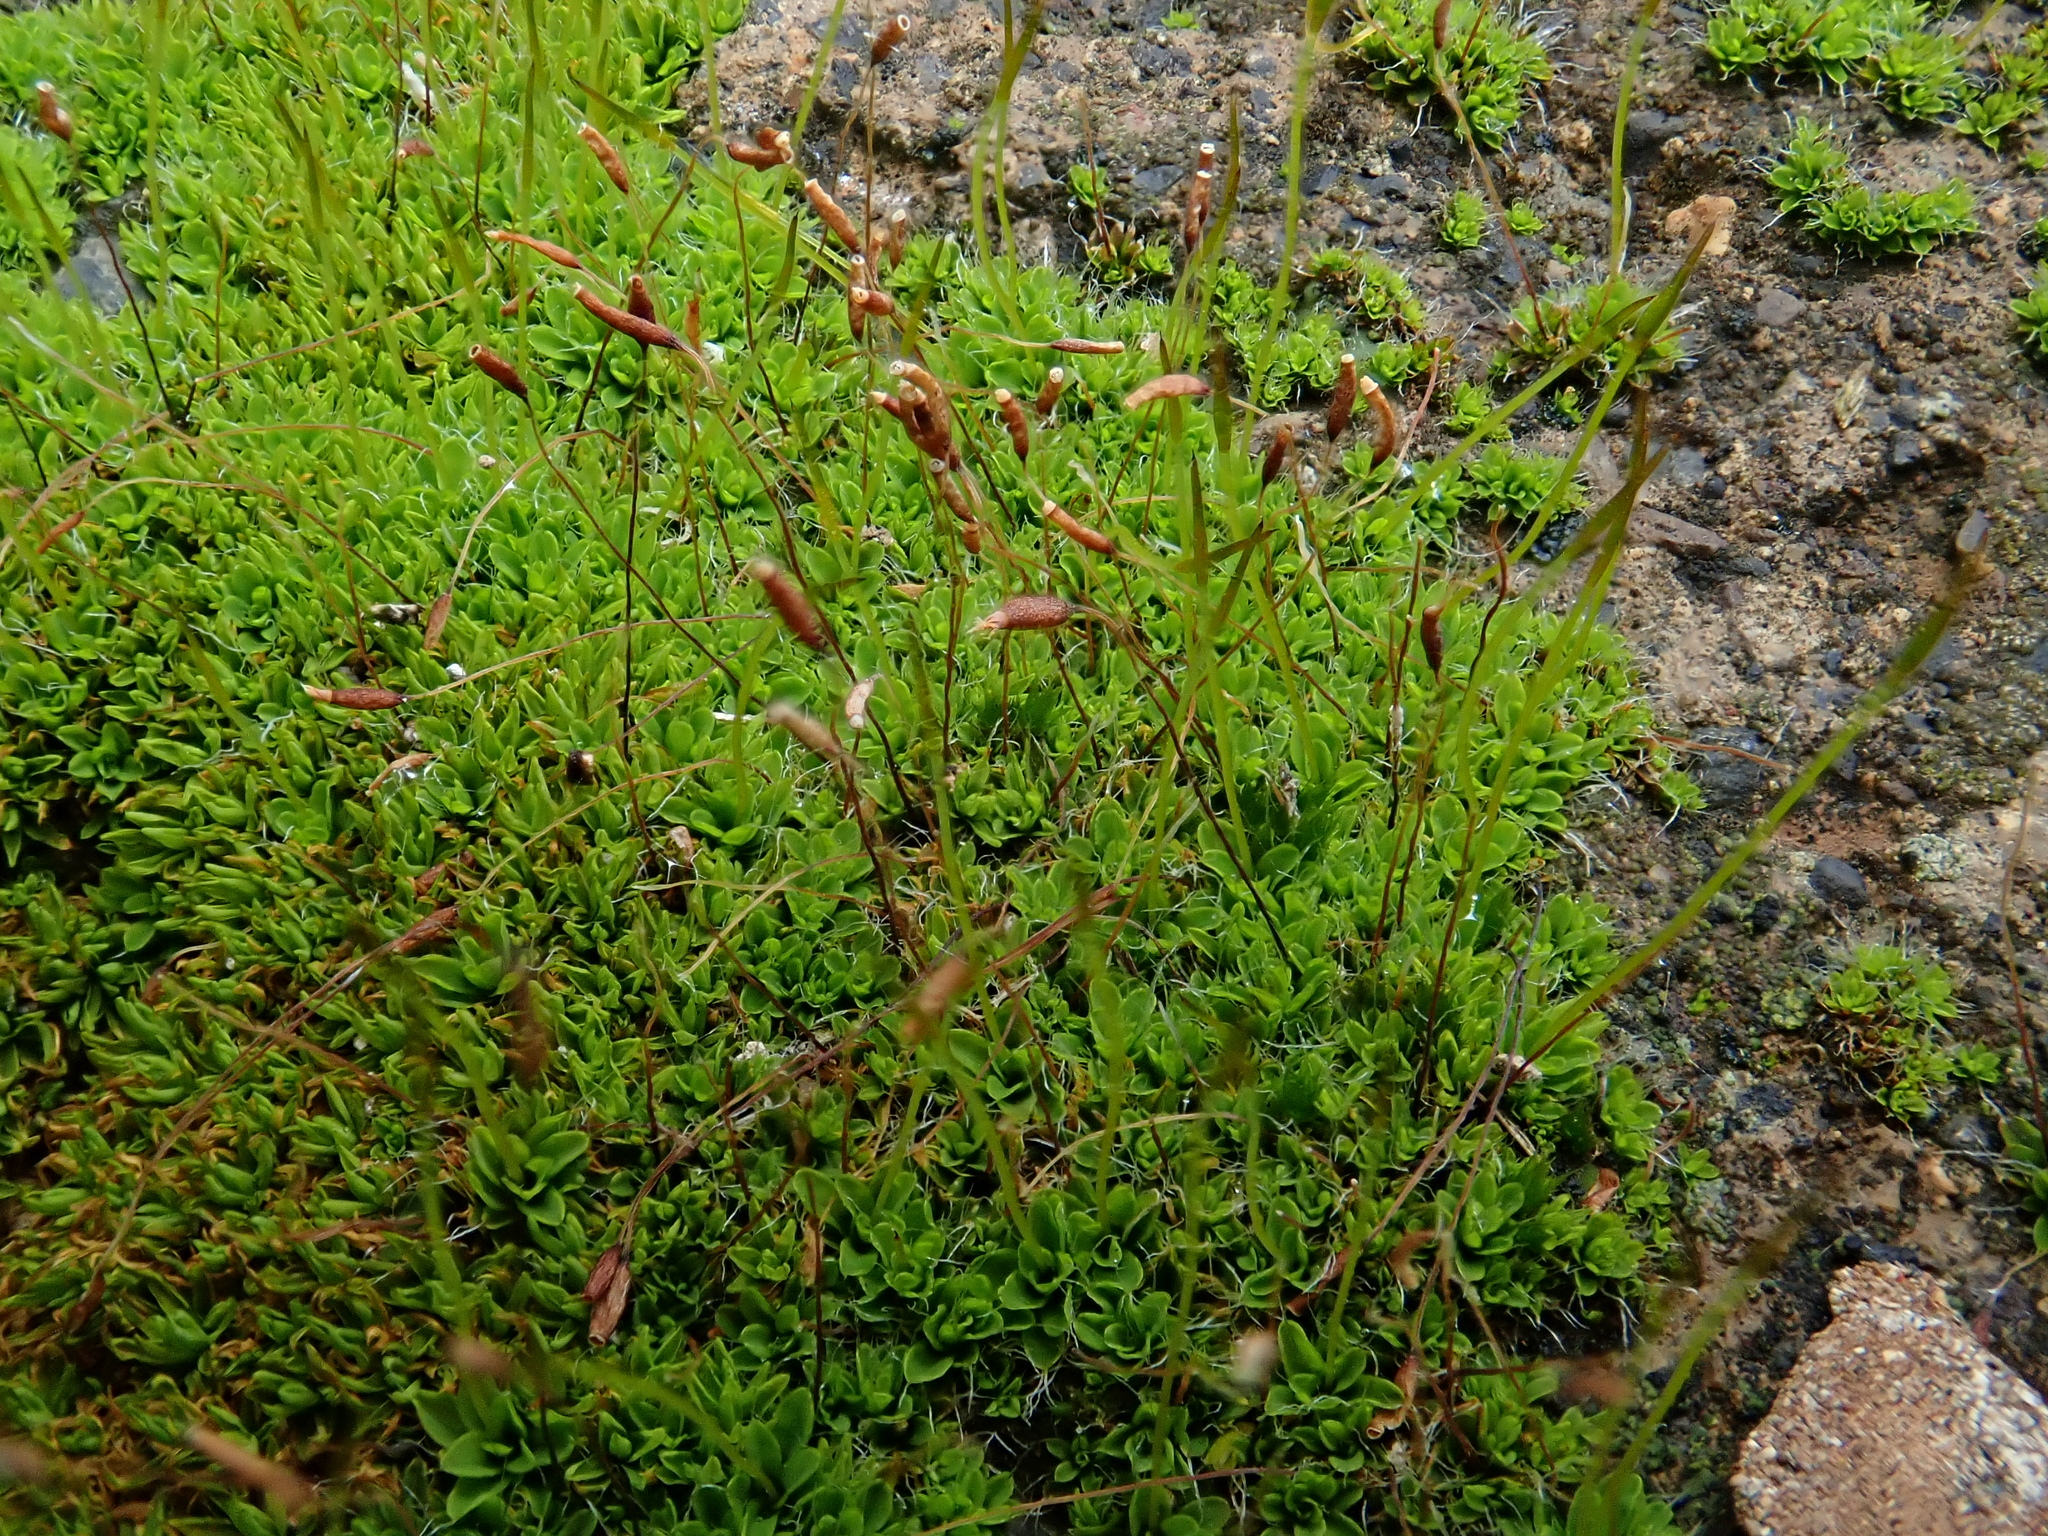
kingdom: Plantae
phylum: Bryophyta
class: Bryopsida
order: Pottiales
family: Pottiaceae
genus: Tortula
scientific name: Tortula muralis
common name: Wall screw-moss
